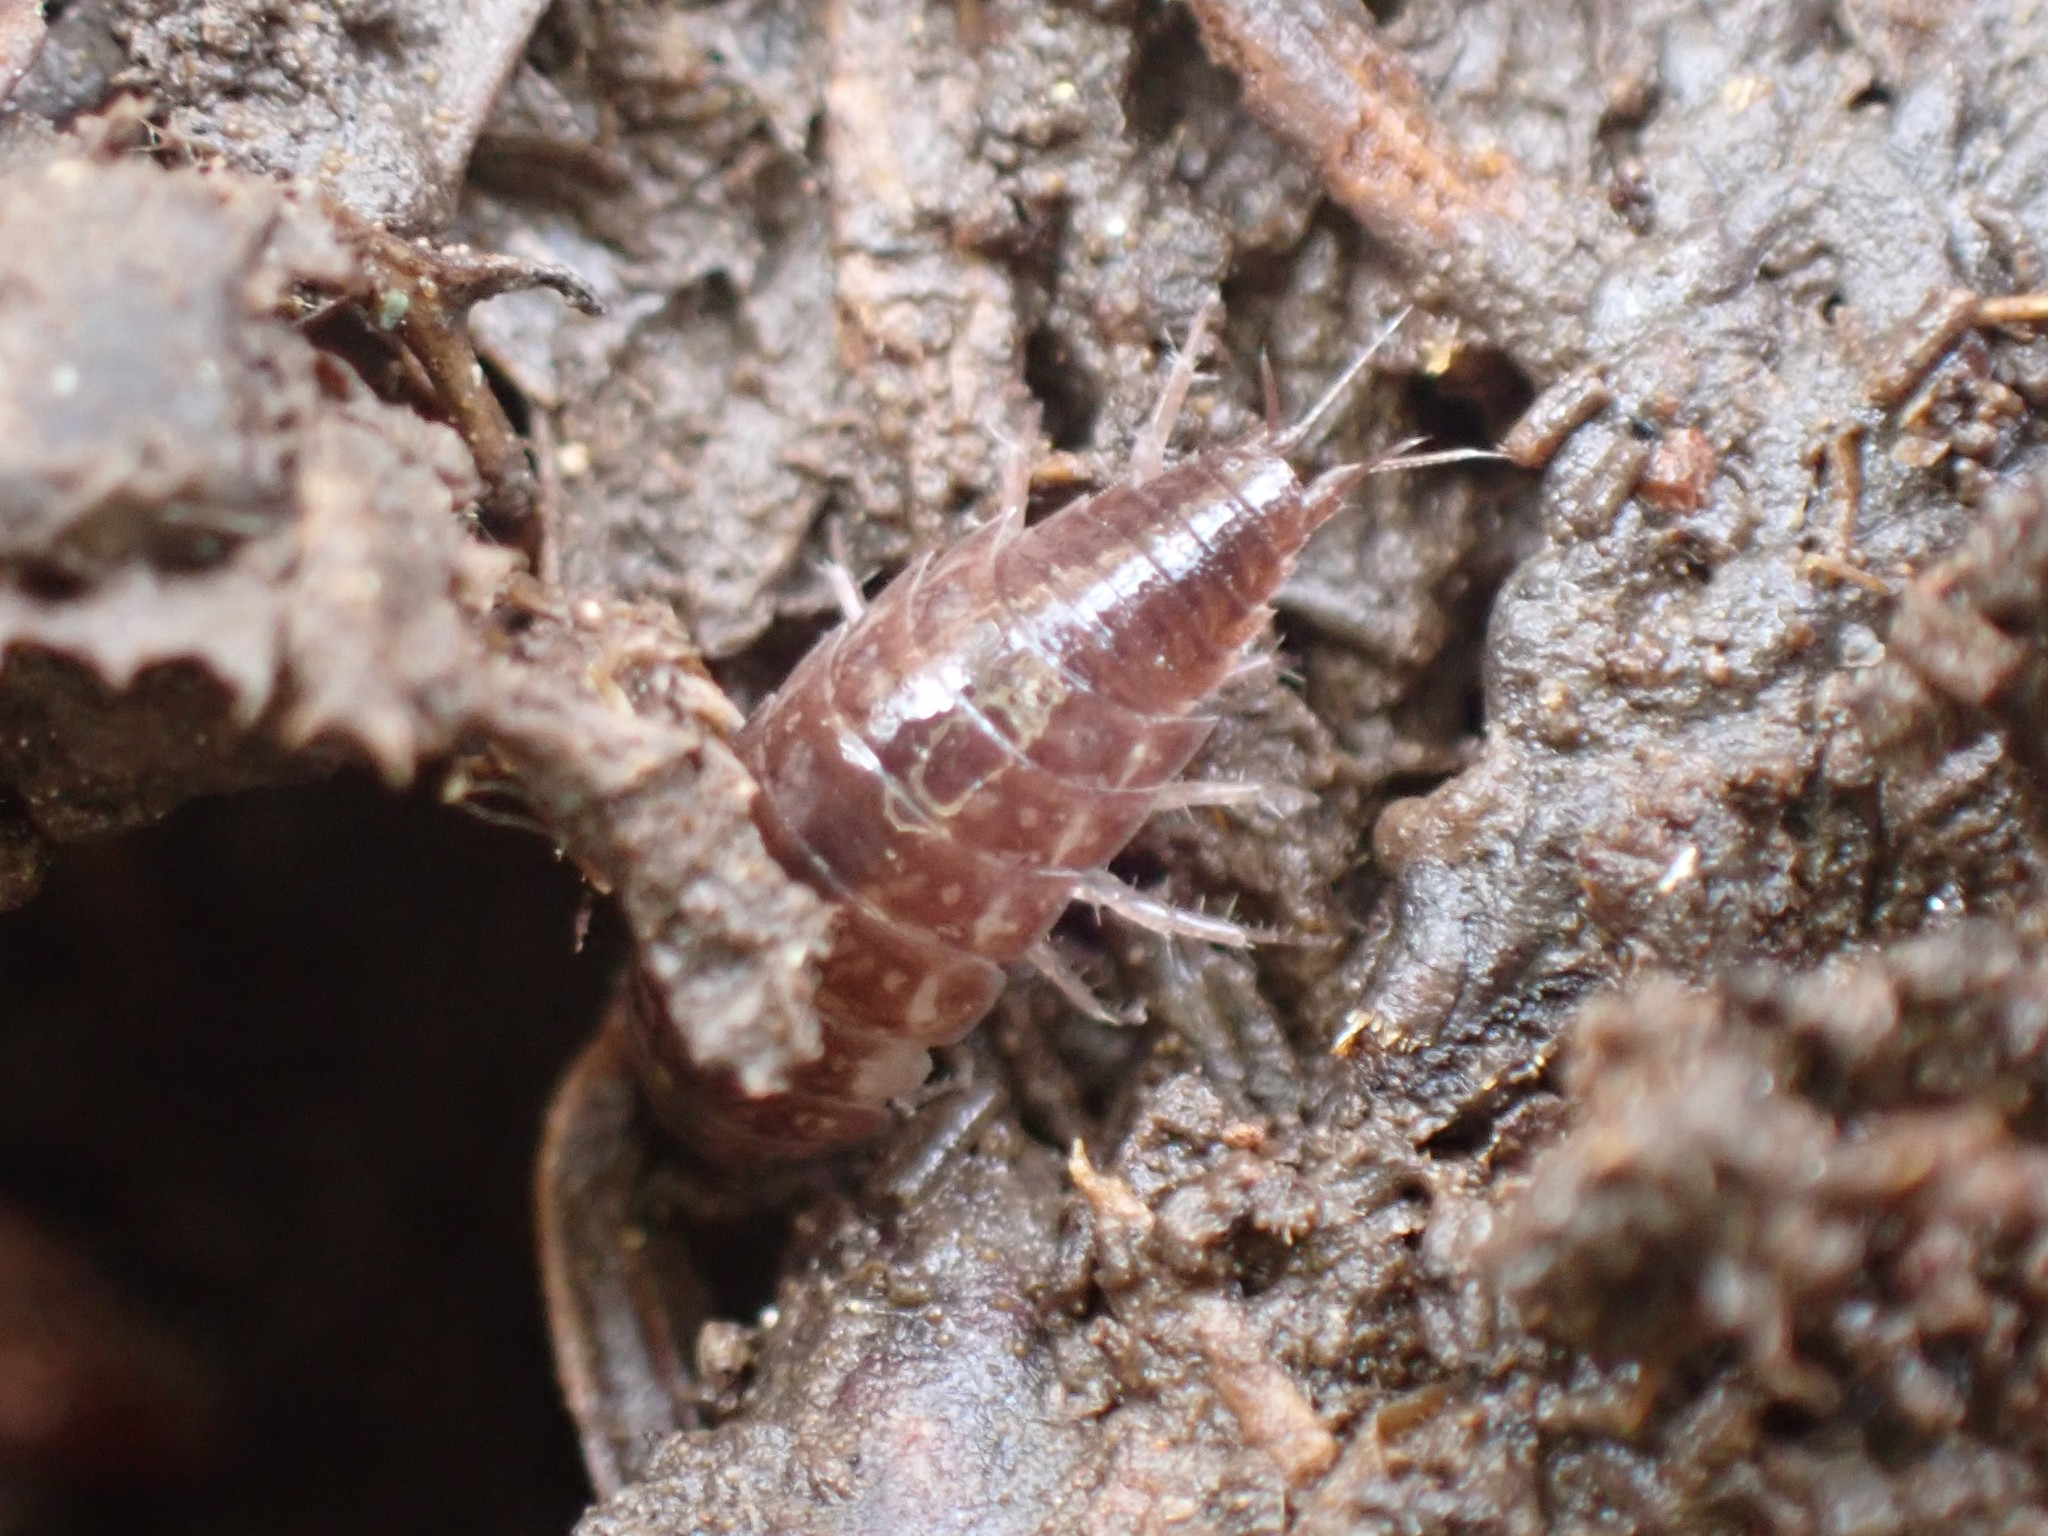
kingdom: Animalia
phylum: Arthropoda
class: Malacostraca
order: Isopoda
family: Ligiidae
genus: Ligidium
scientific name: Ligidium gracile
